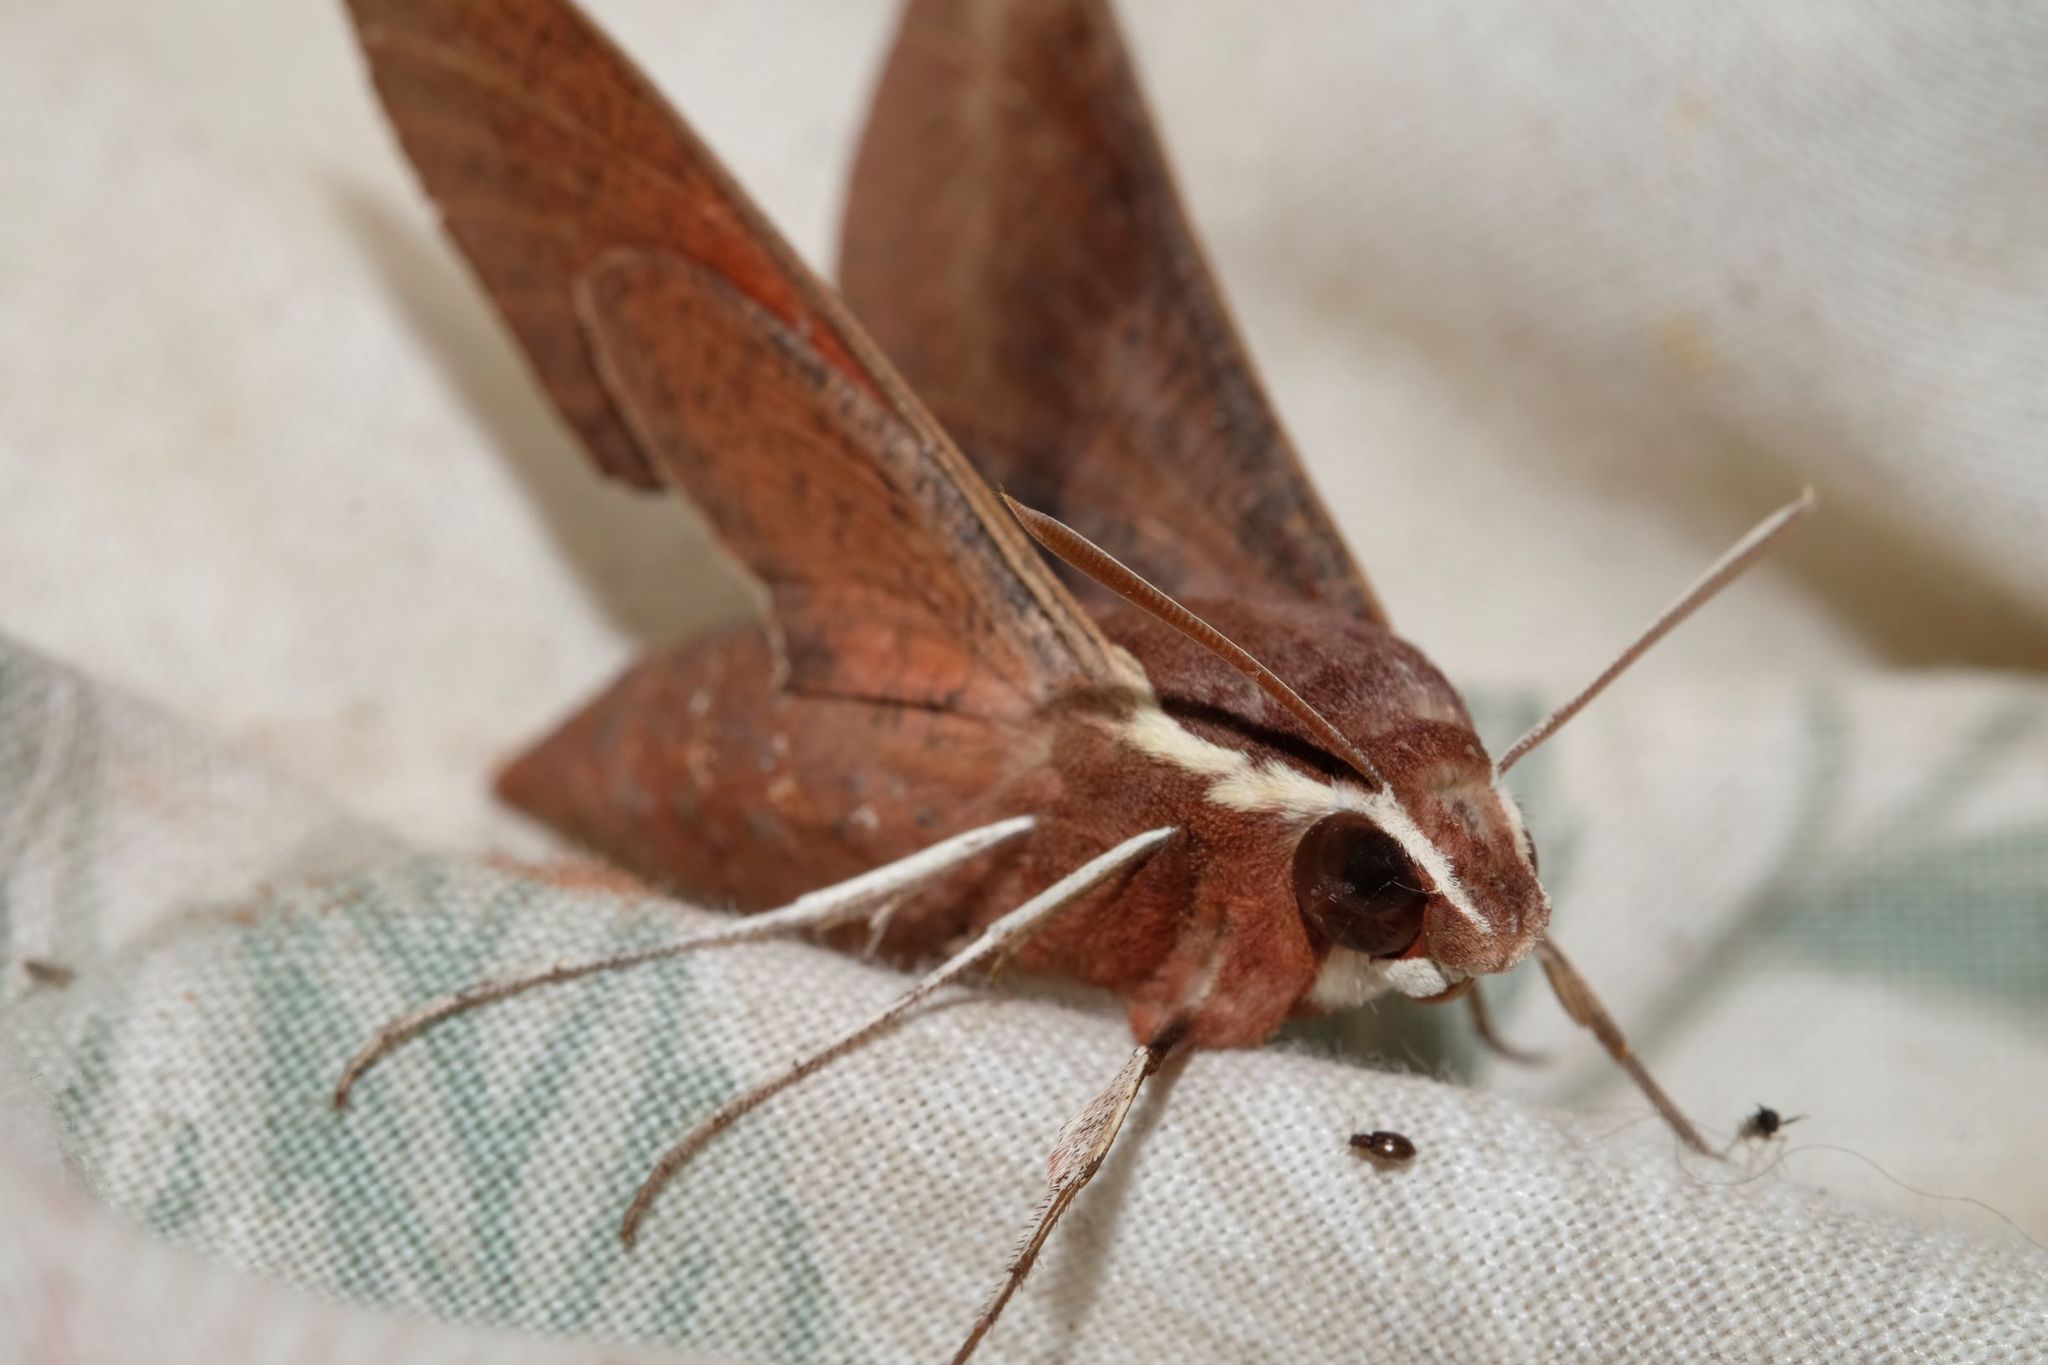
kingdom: Animalia
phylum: Arthropoda
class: Insecta
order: Lepidoptera
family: Sphingidae
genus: Hippotion
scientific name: Hippotion scrofa
